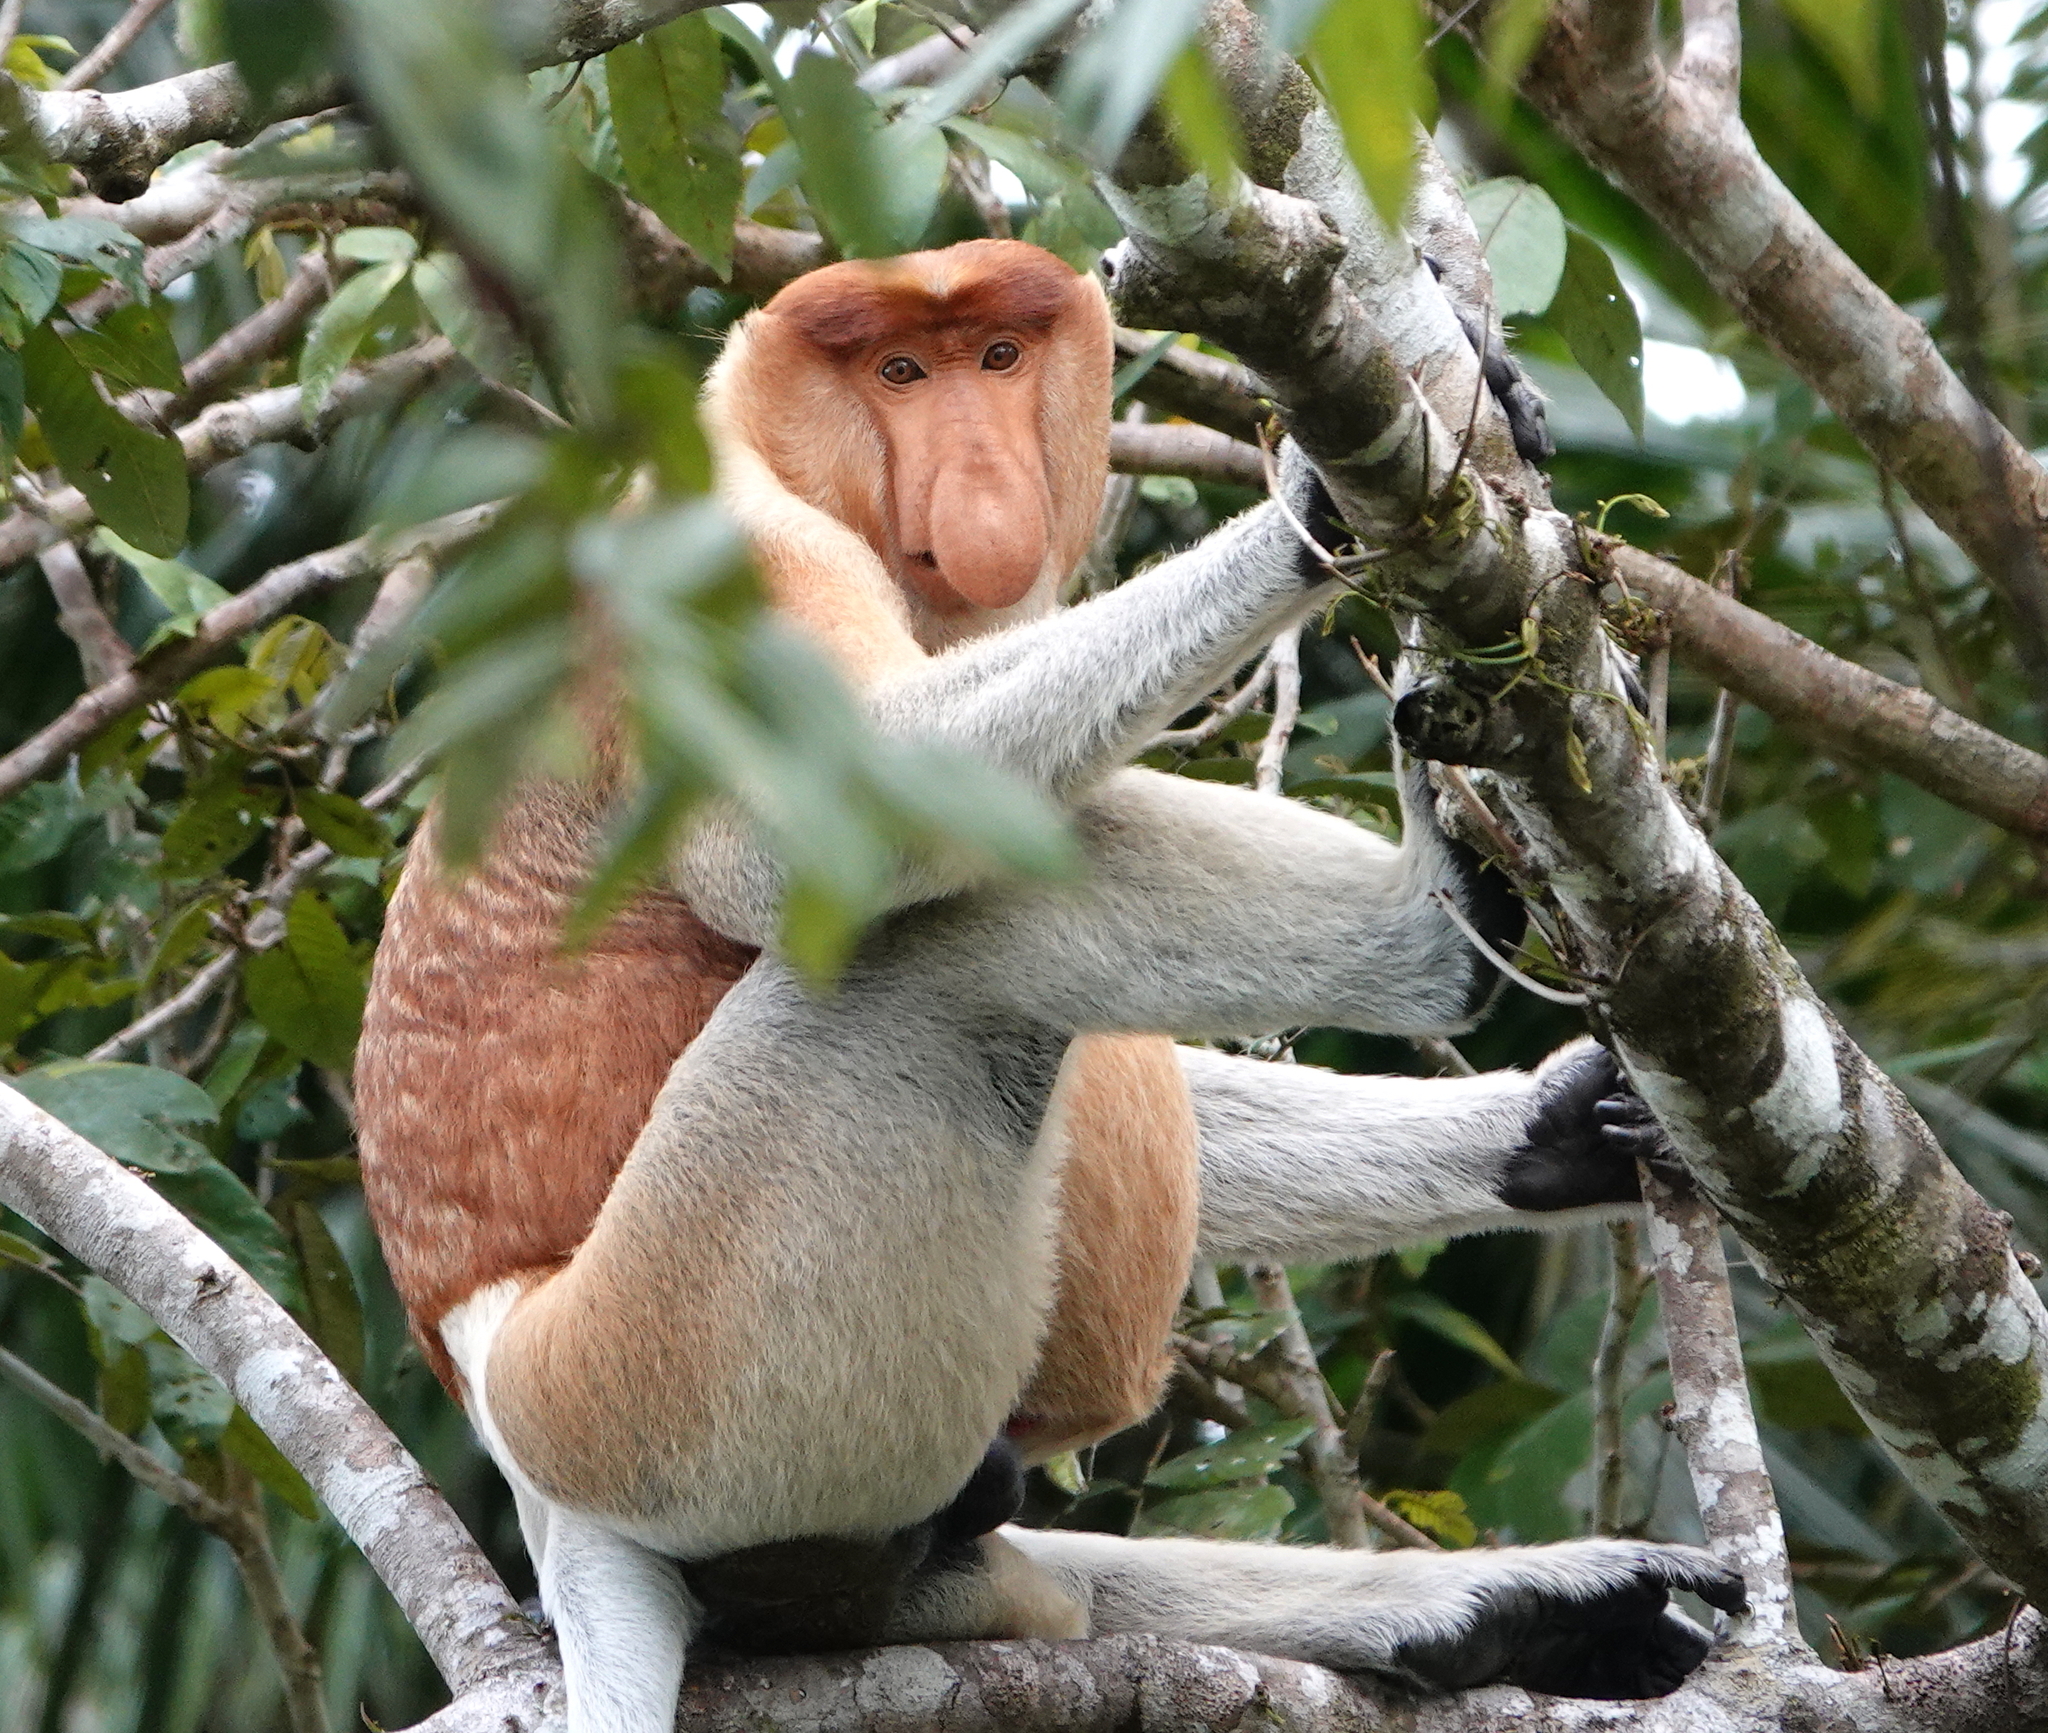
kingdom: Animalia
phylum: Chordata
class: Mammalia
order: Primates
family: Cercopithecidae
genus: Nasalis
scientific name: Nasalis larvatus
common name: Proboscis monkey
